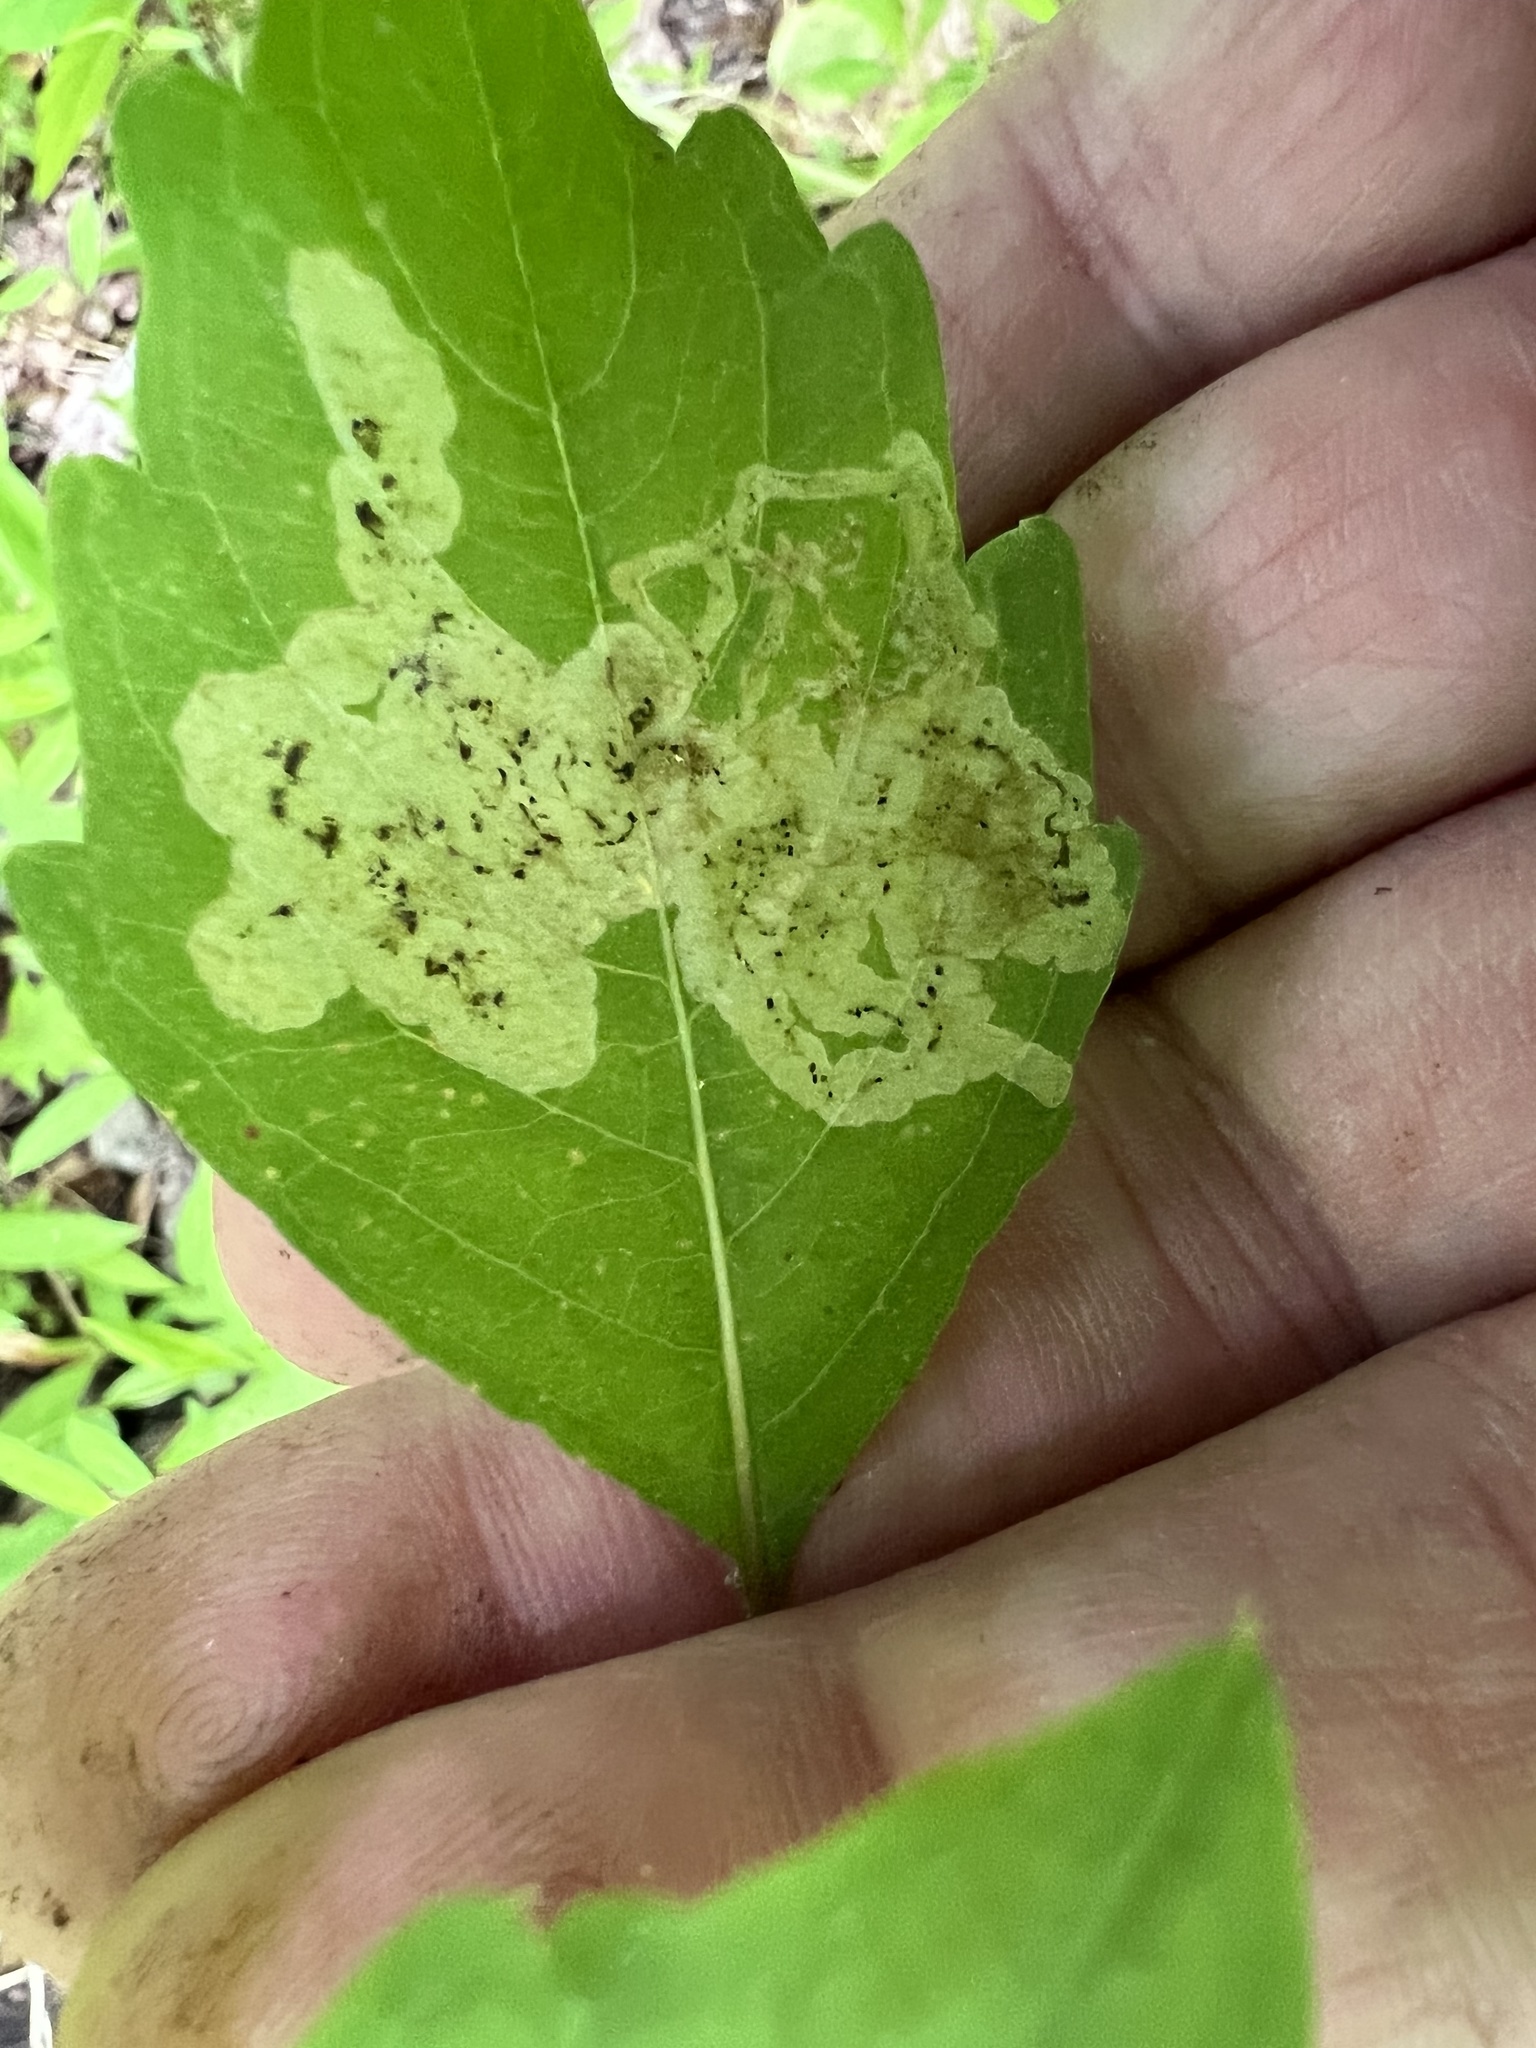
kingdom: Animalia
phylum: Arthropoda
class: Insecta
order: Diptera
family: Agromyzidae
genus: Phytoliriomyza
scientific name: Phytoliriomyza melampyga
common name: Jewelweed leaf-miner fly
